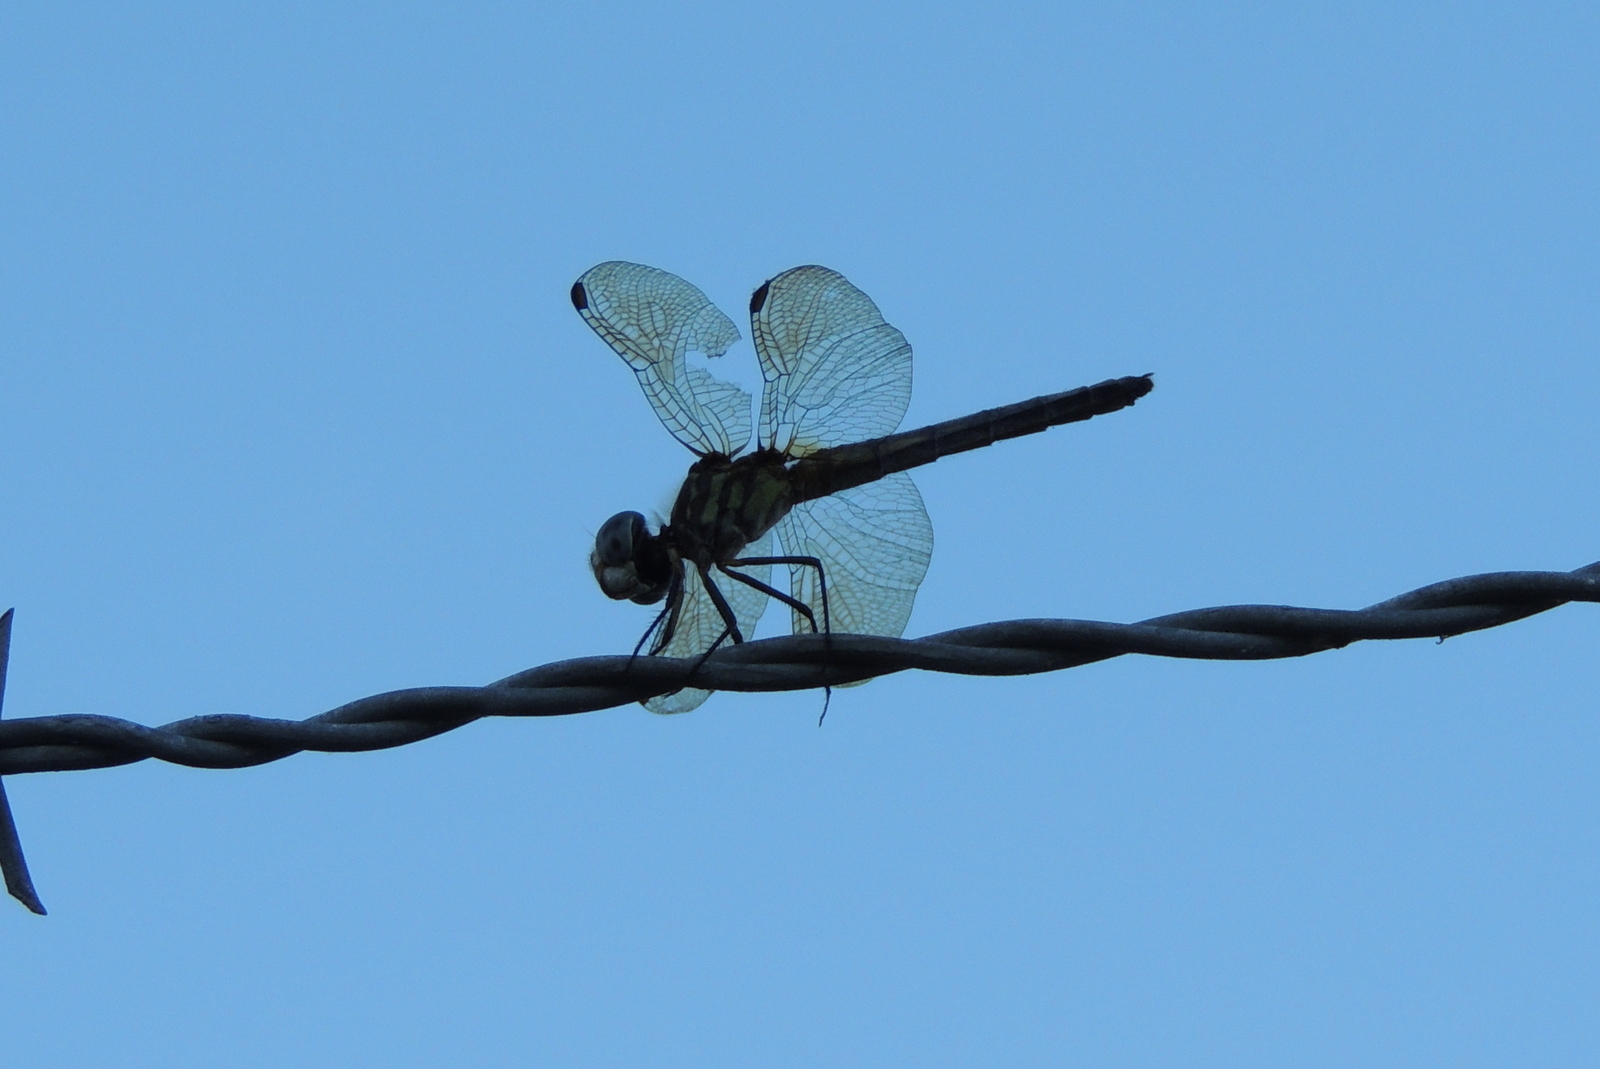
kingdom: Animalia
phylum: Arthropoda
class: Insecta
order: Odonata
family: Libellulidae
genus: Pachydiplax
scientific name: Pachydiplax longipennis
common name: Blue dasher
